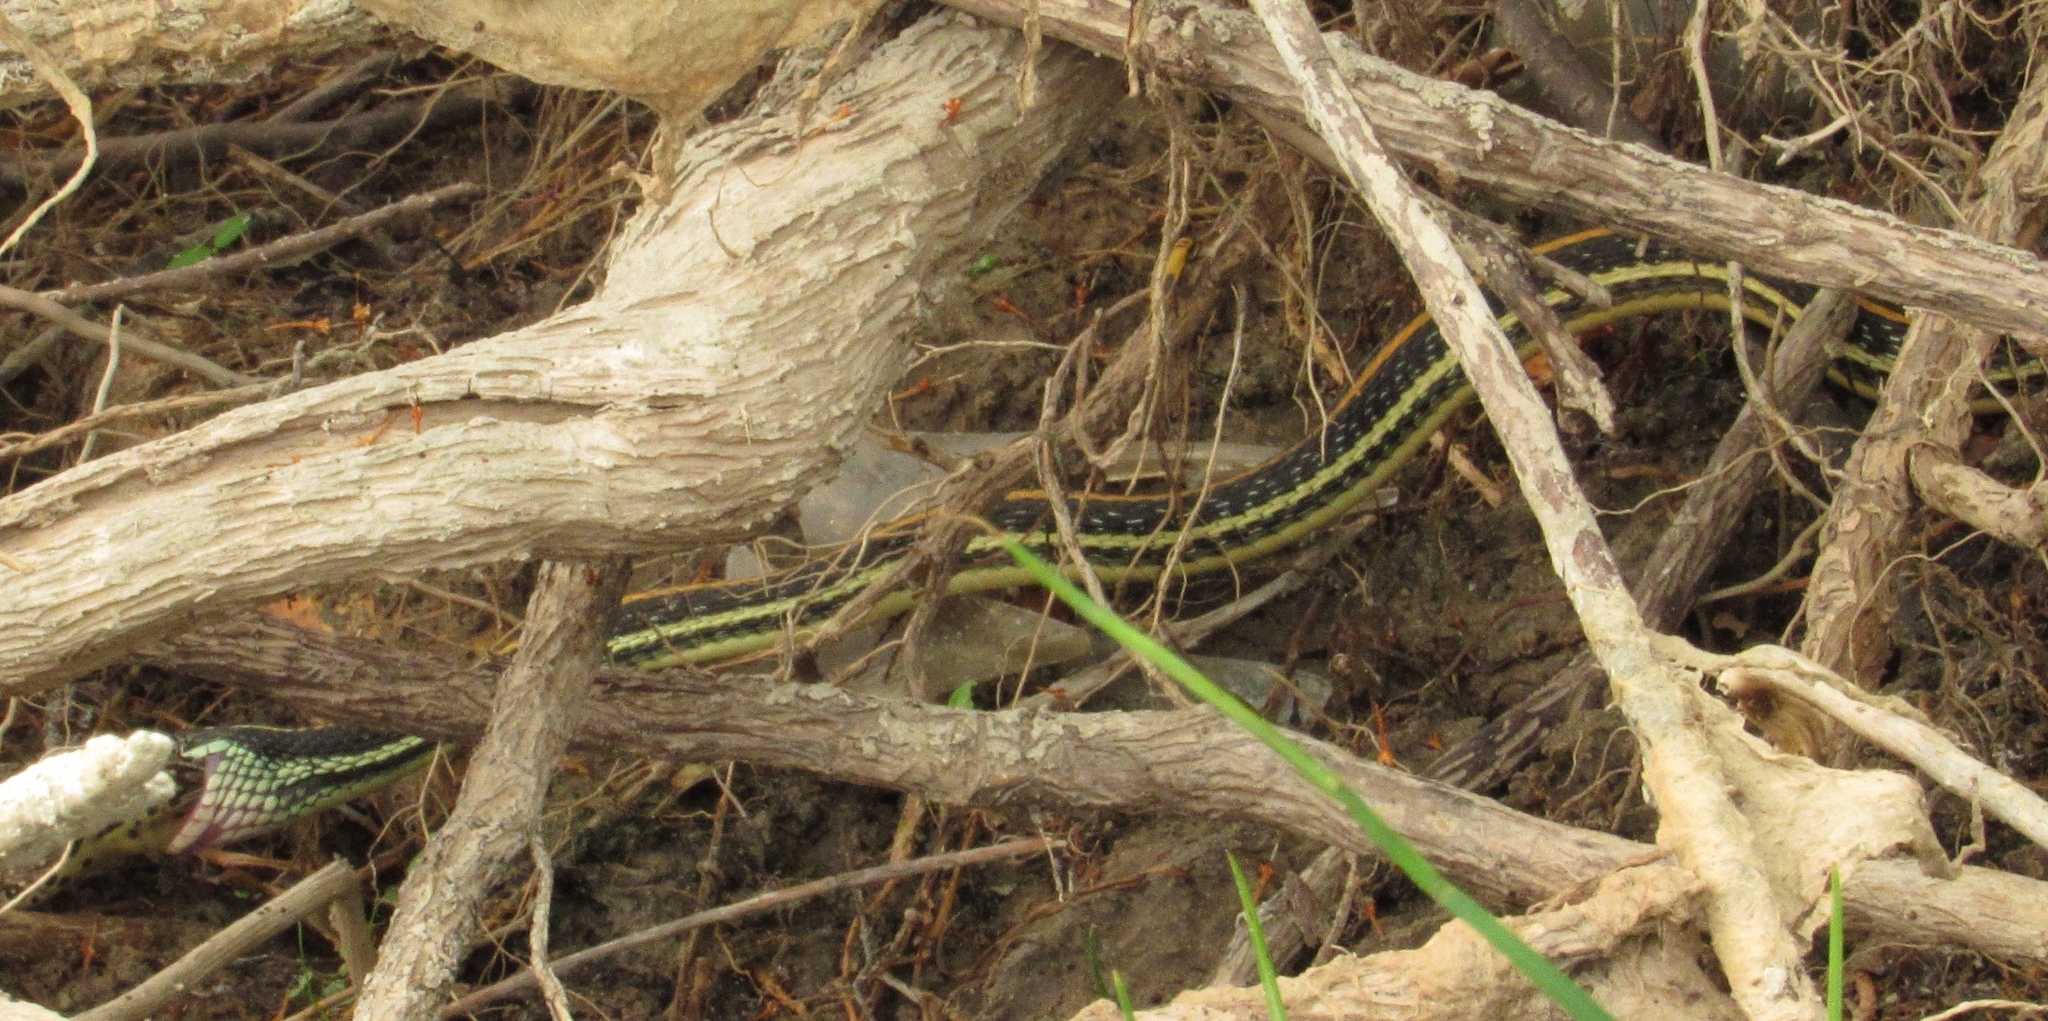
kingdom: Animalia
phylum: Chordata
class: Squamata
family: Colubridae
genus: Thamnophis
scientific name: Thamnophis proximus
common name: Western ribbon snake
